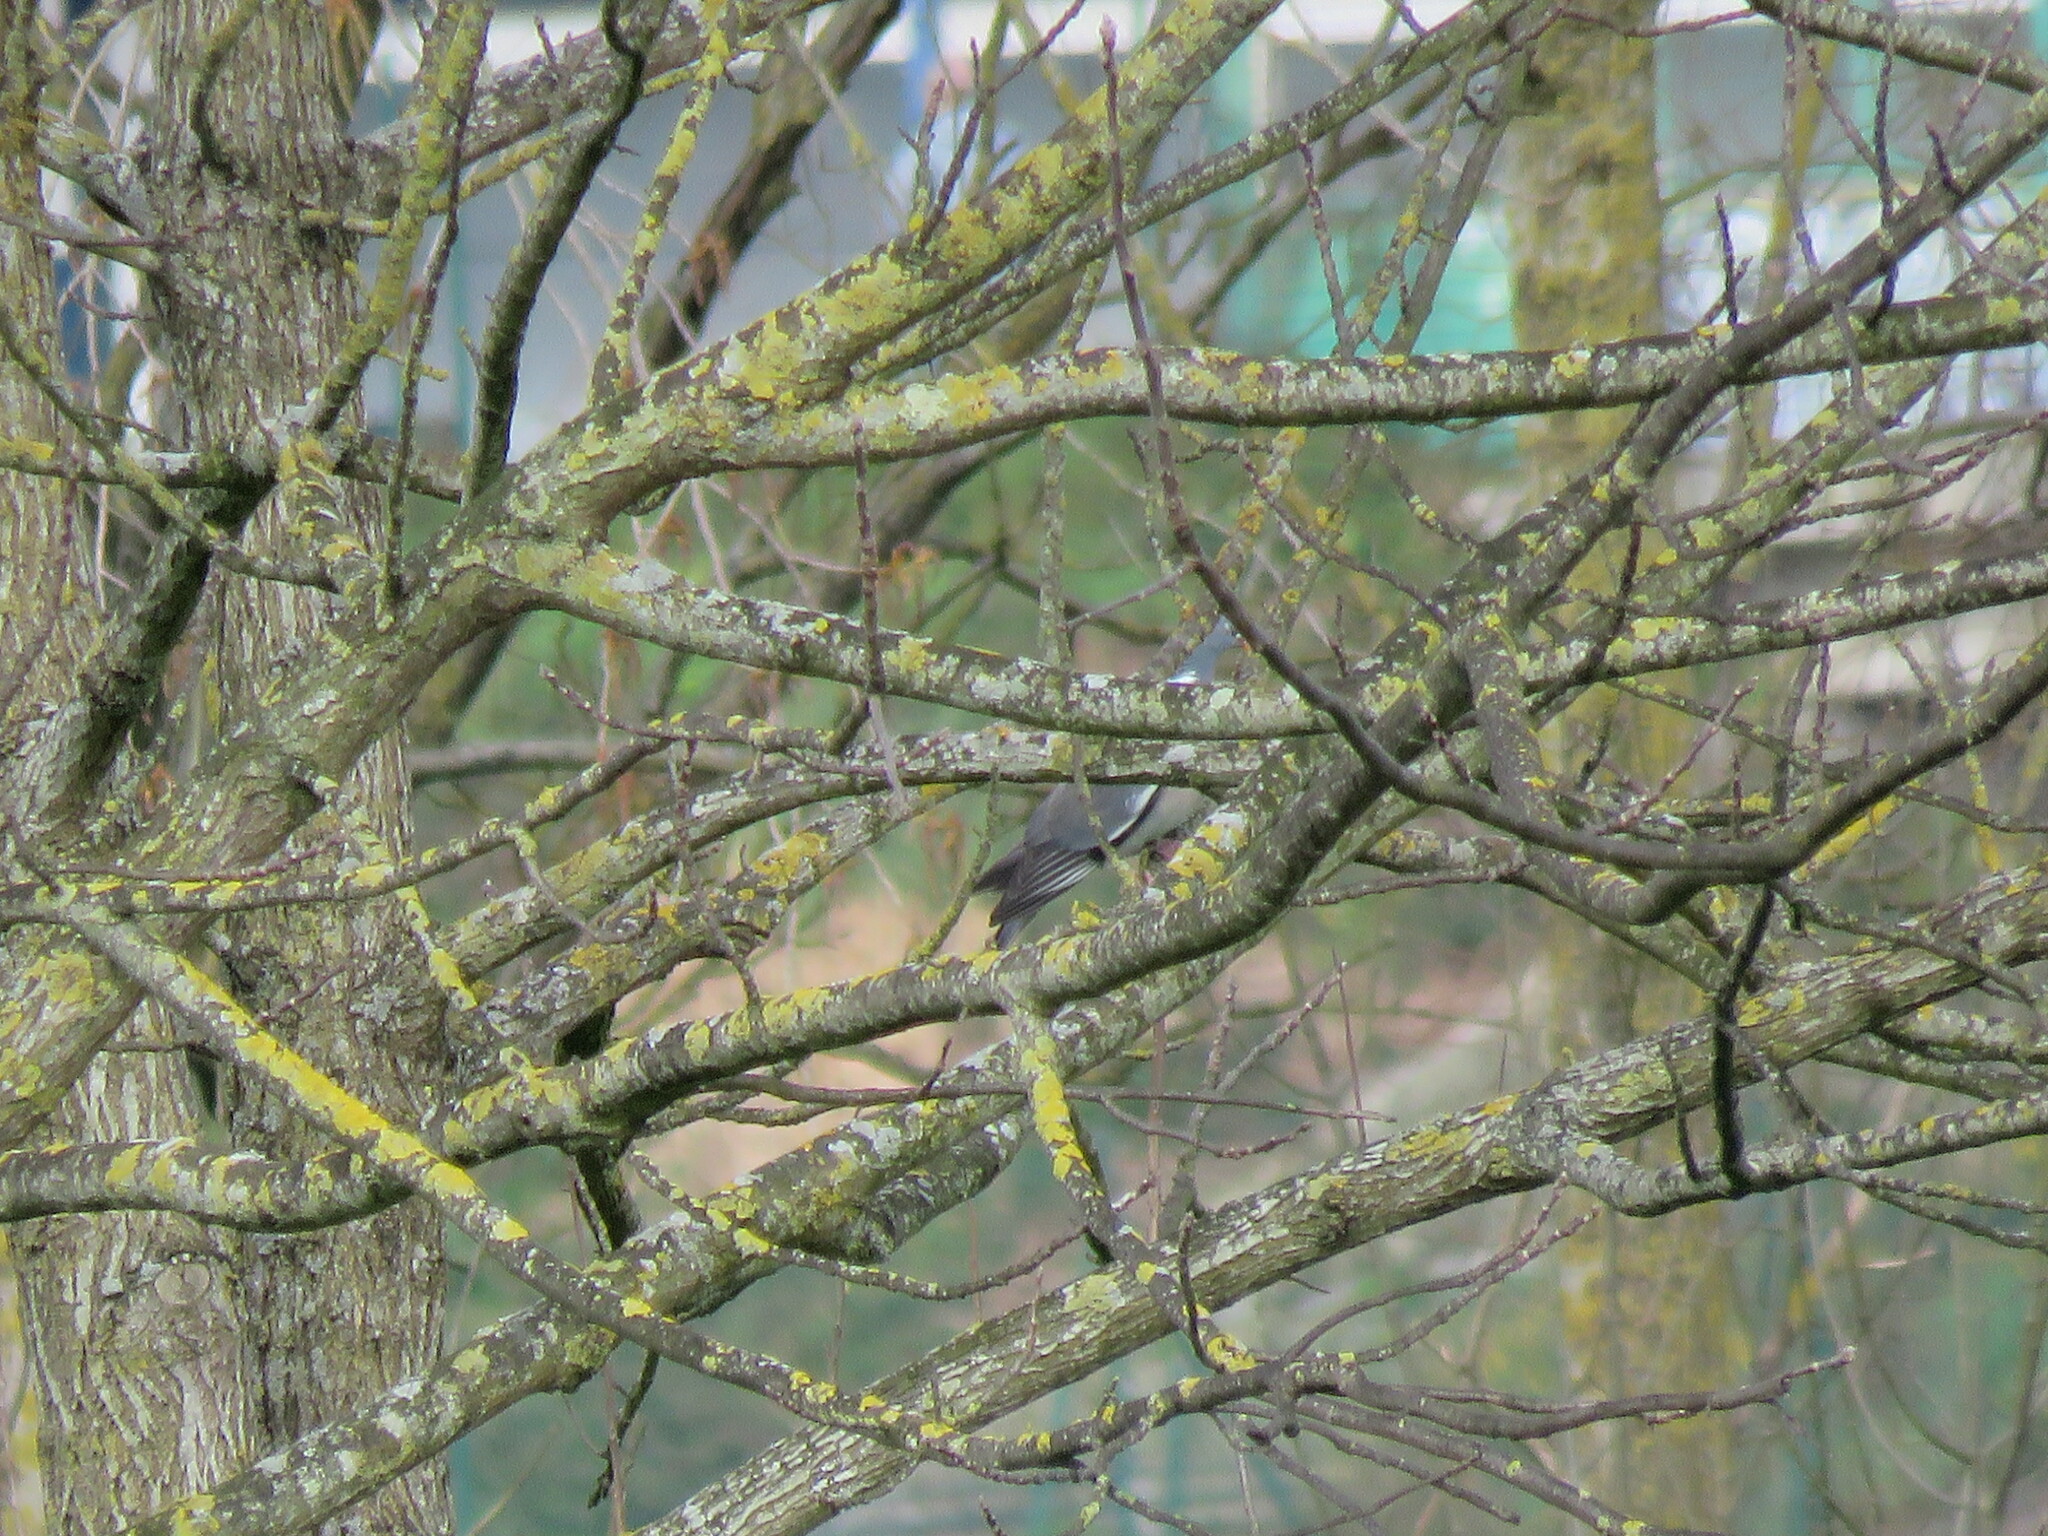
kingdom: Animalia
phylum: Chordata
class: Aves
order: Columbiformes
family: Columbidae
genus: Columba
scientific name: Columba palumbus
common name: Common wood pigeon
